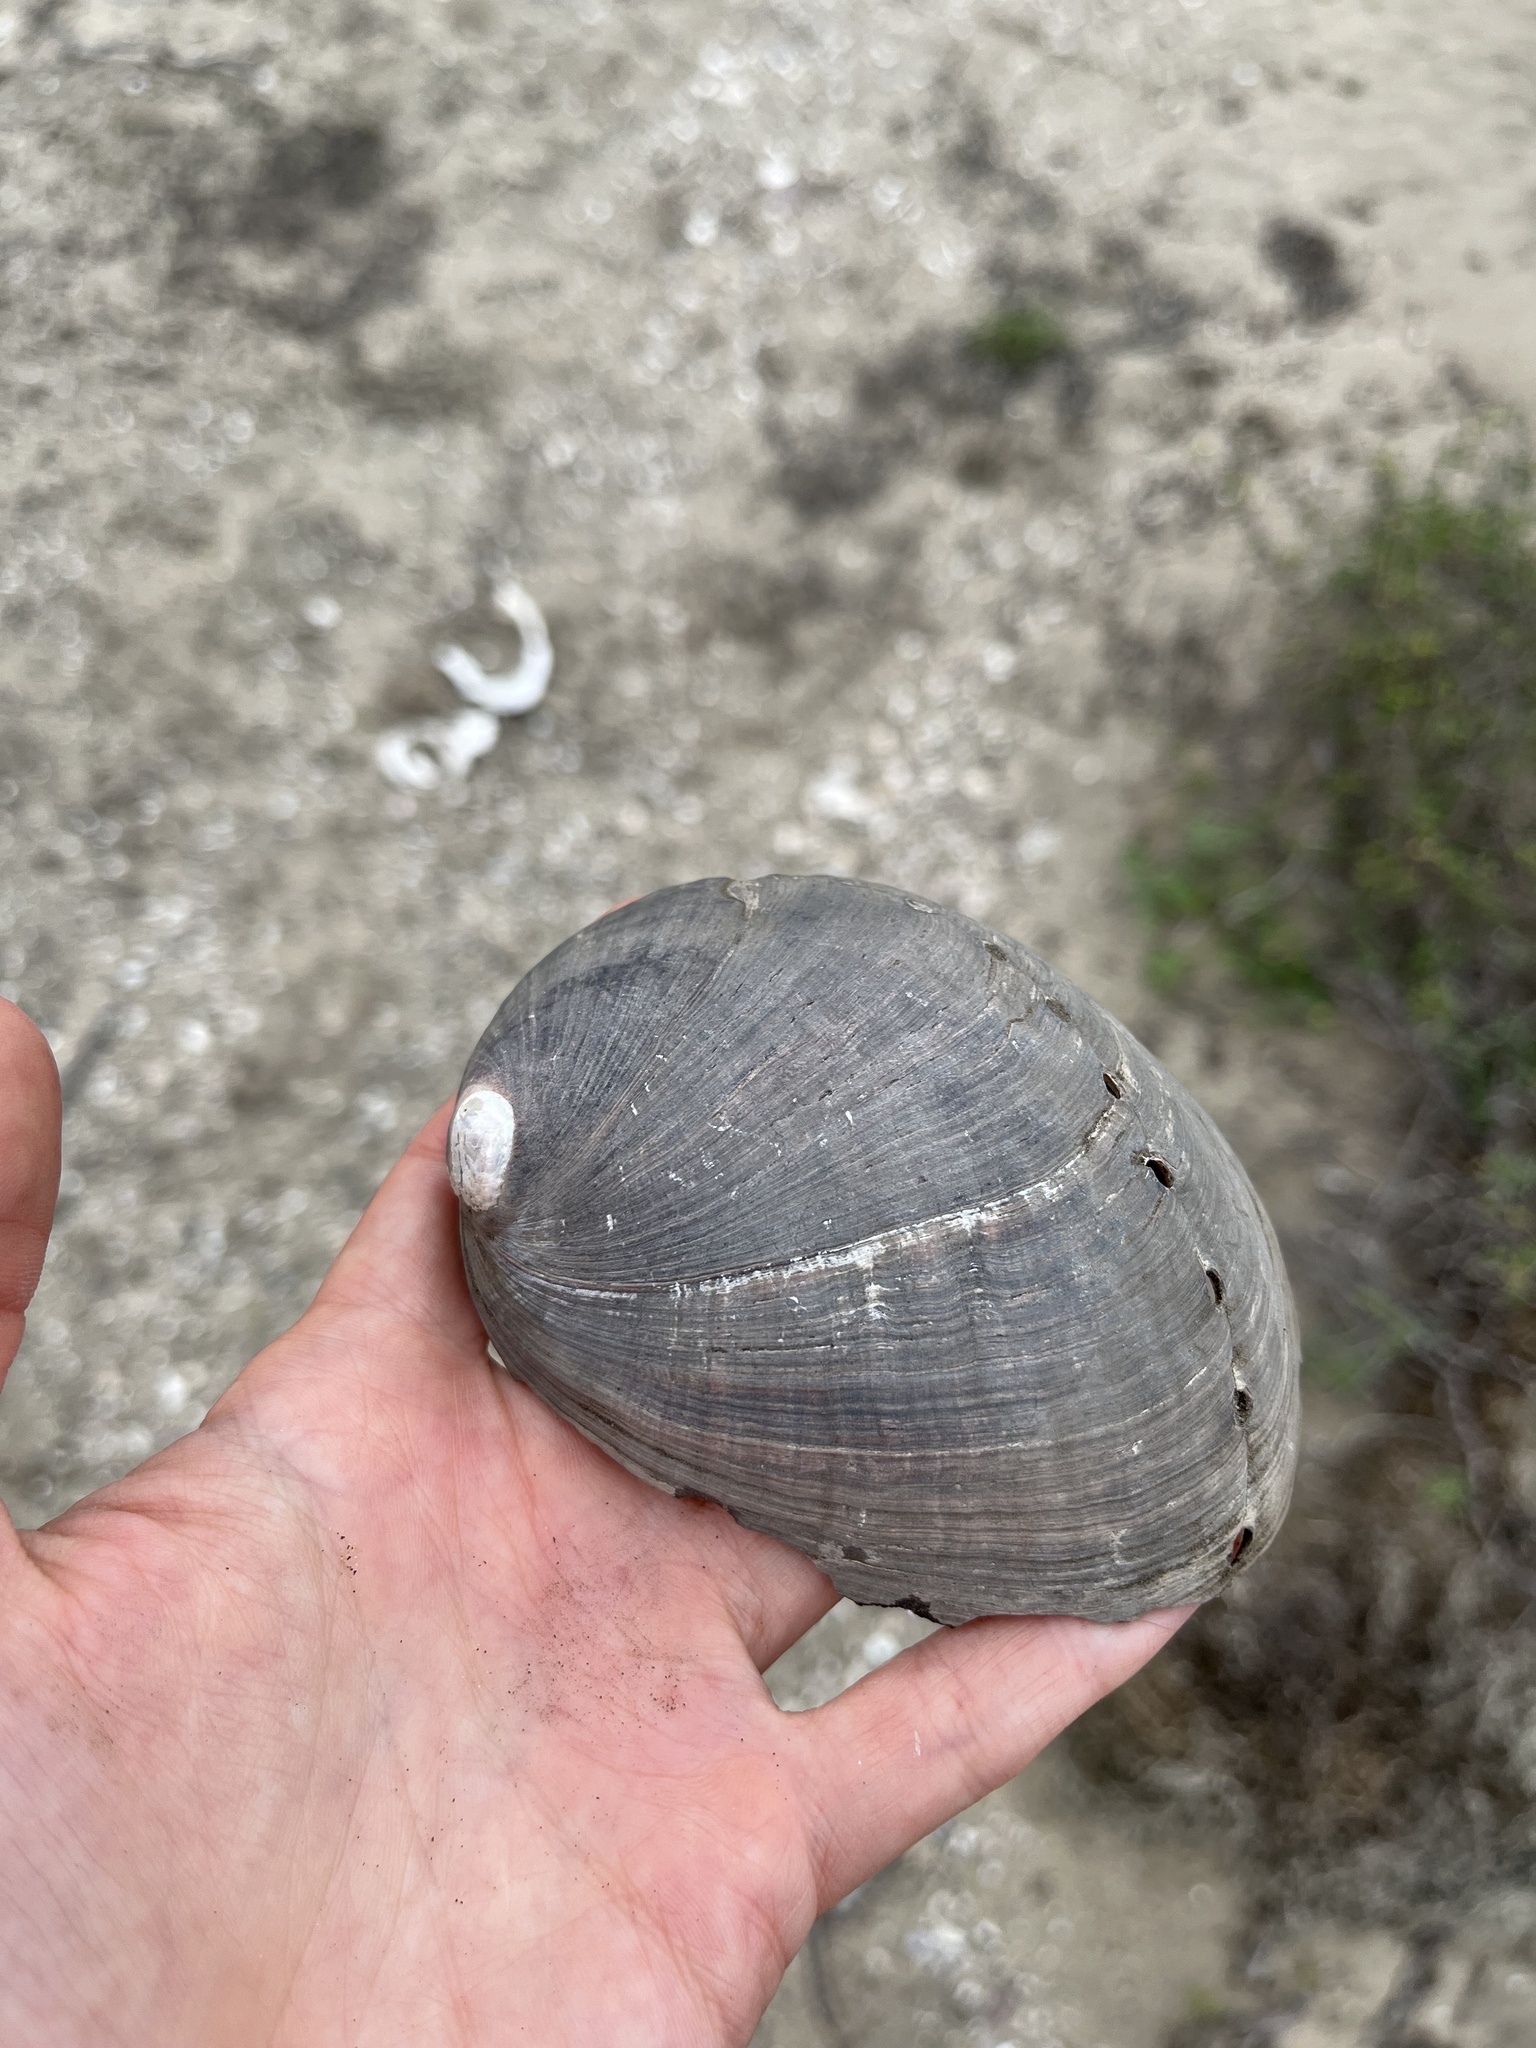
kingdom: Animalia
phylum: Mollusca
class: Gastropoda
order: Lepetellida
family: Haliotidae
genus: Haliotis
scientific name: Haliotis cracherodii
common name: Black abalone
